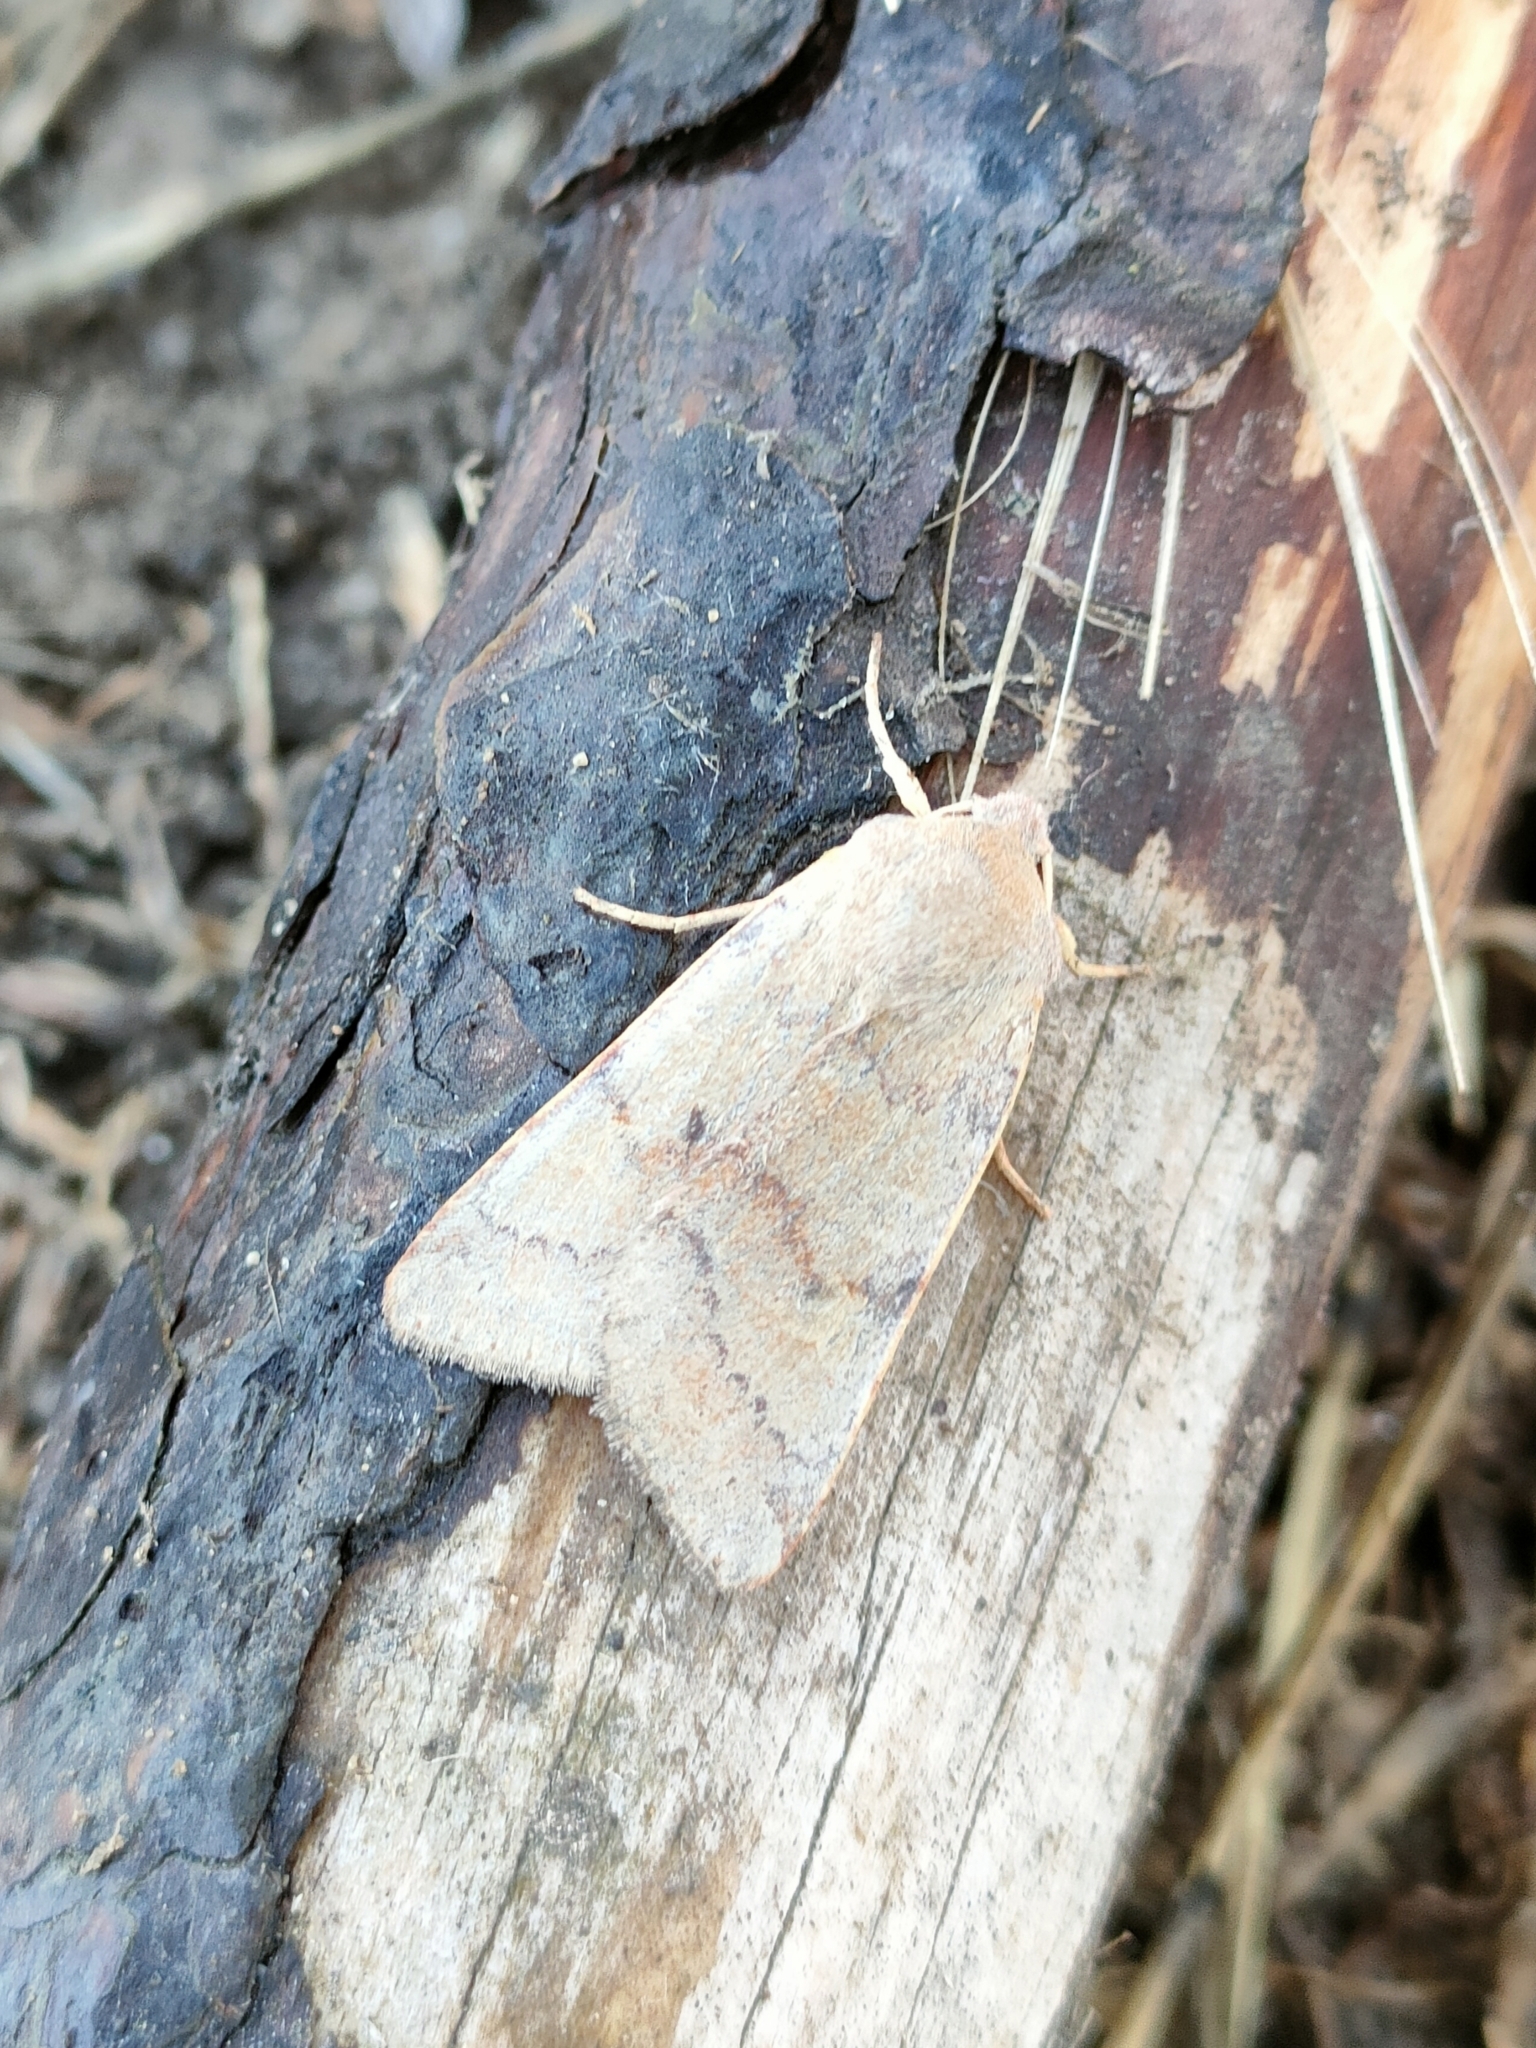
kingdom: Animalia
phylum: Arthropoda
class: Insecta
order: Lepidoptera
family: Noctuidae
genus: Agrochola
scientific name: Agrochola helvola
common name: Flounced chestnut
